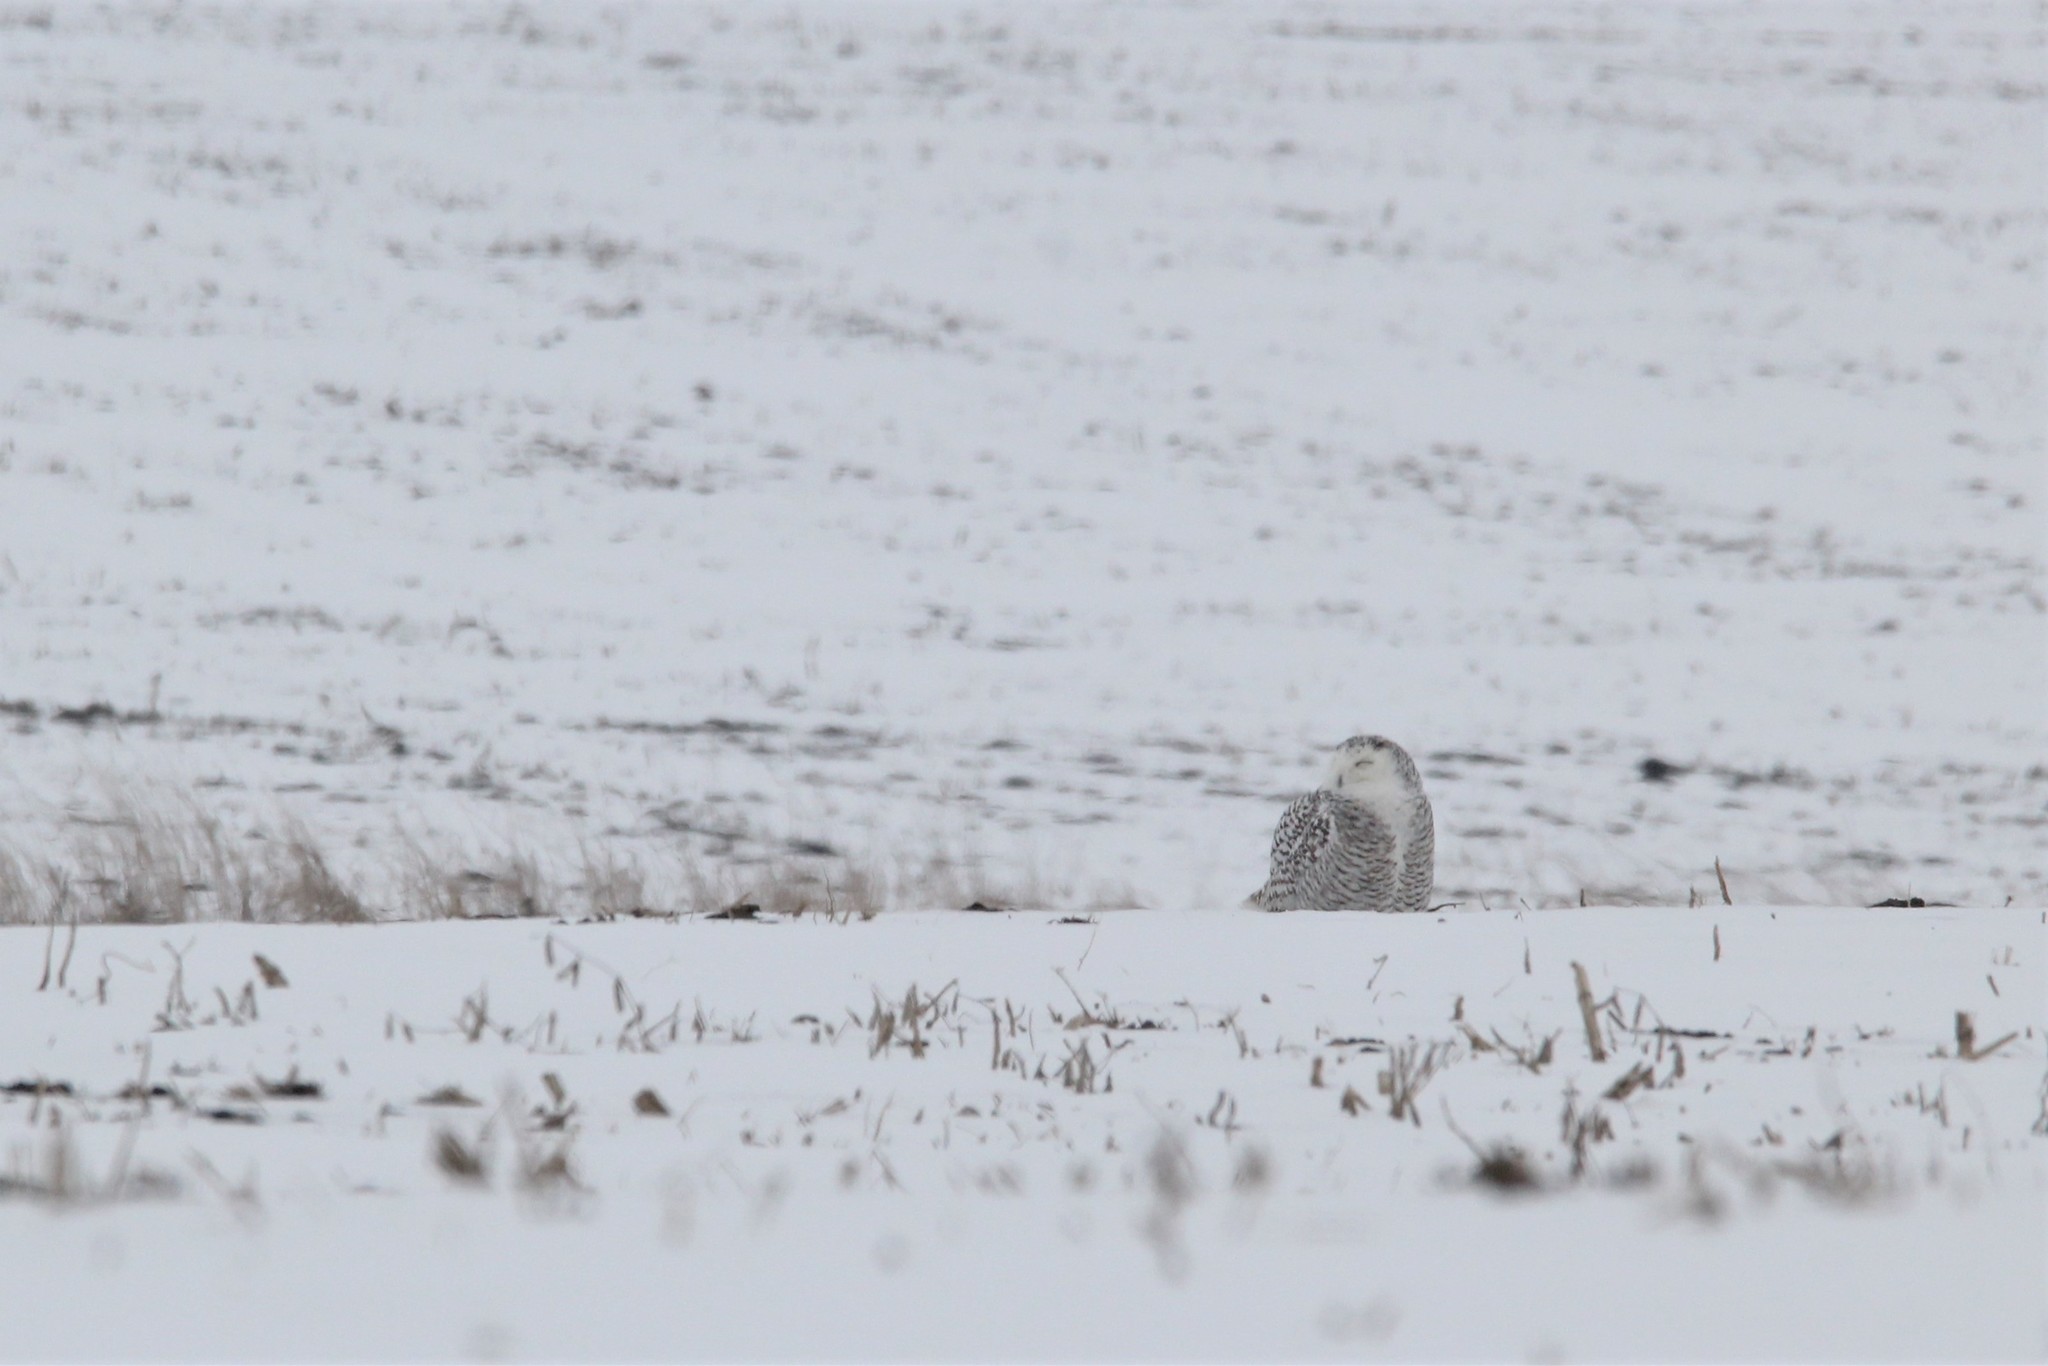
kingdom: Animalia
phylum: Chordata
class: Aves
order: Strigiformes
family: Strigidae
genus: Bubo
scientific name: Bubo scandiacus
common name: Snowy owl
